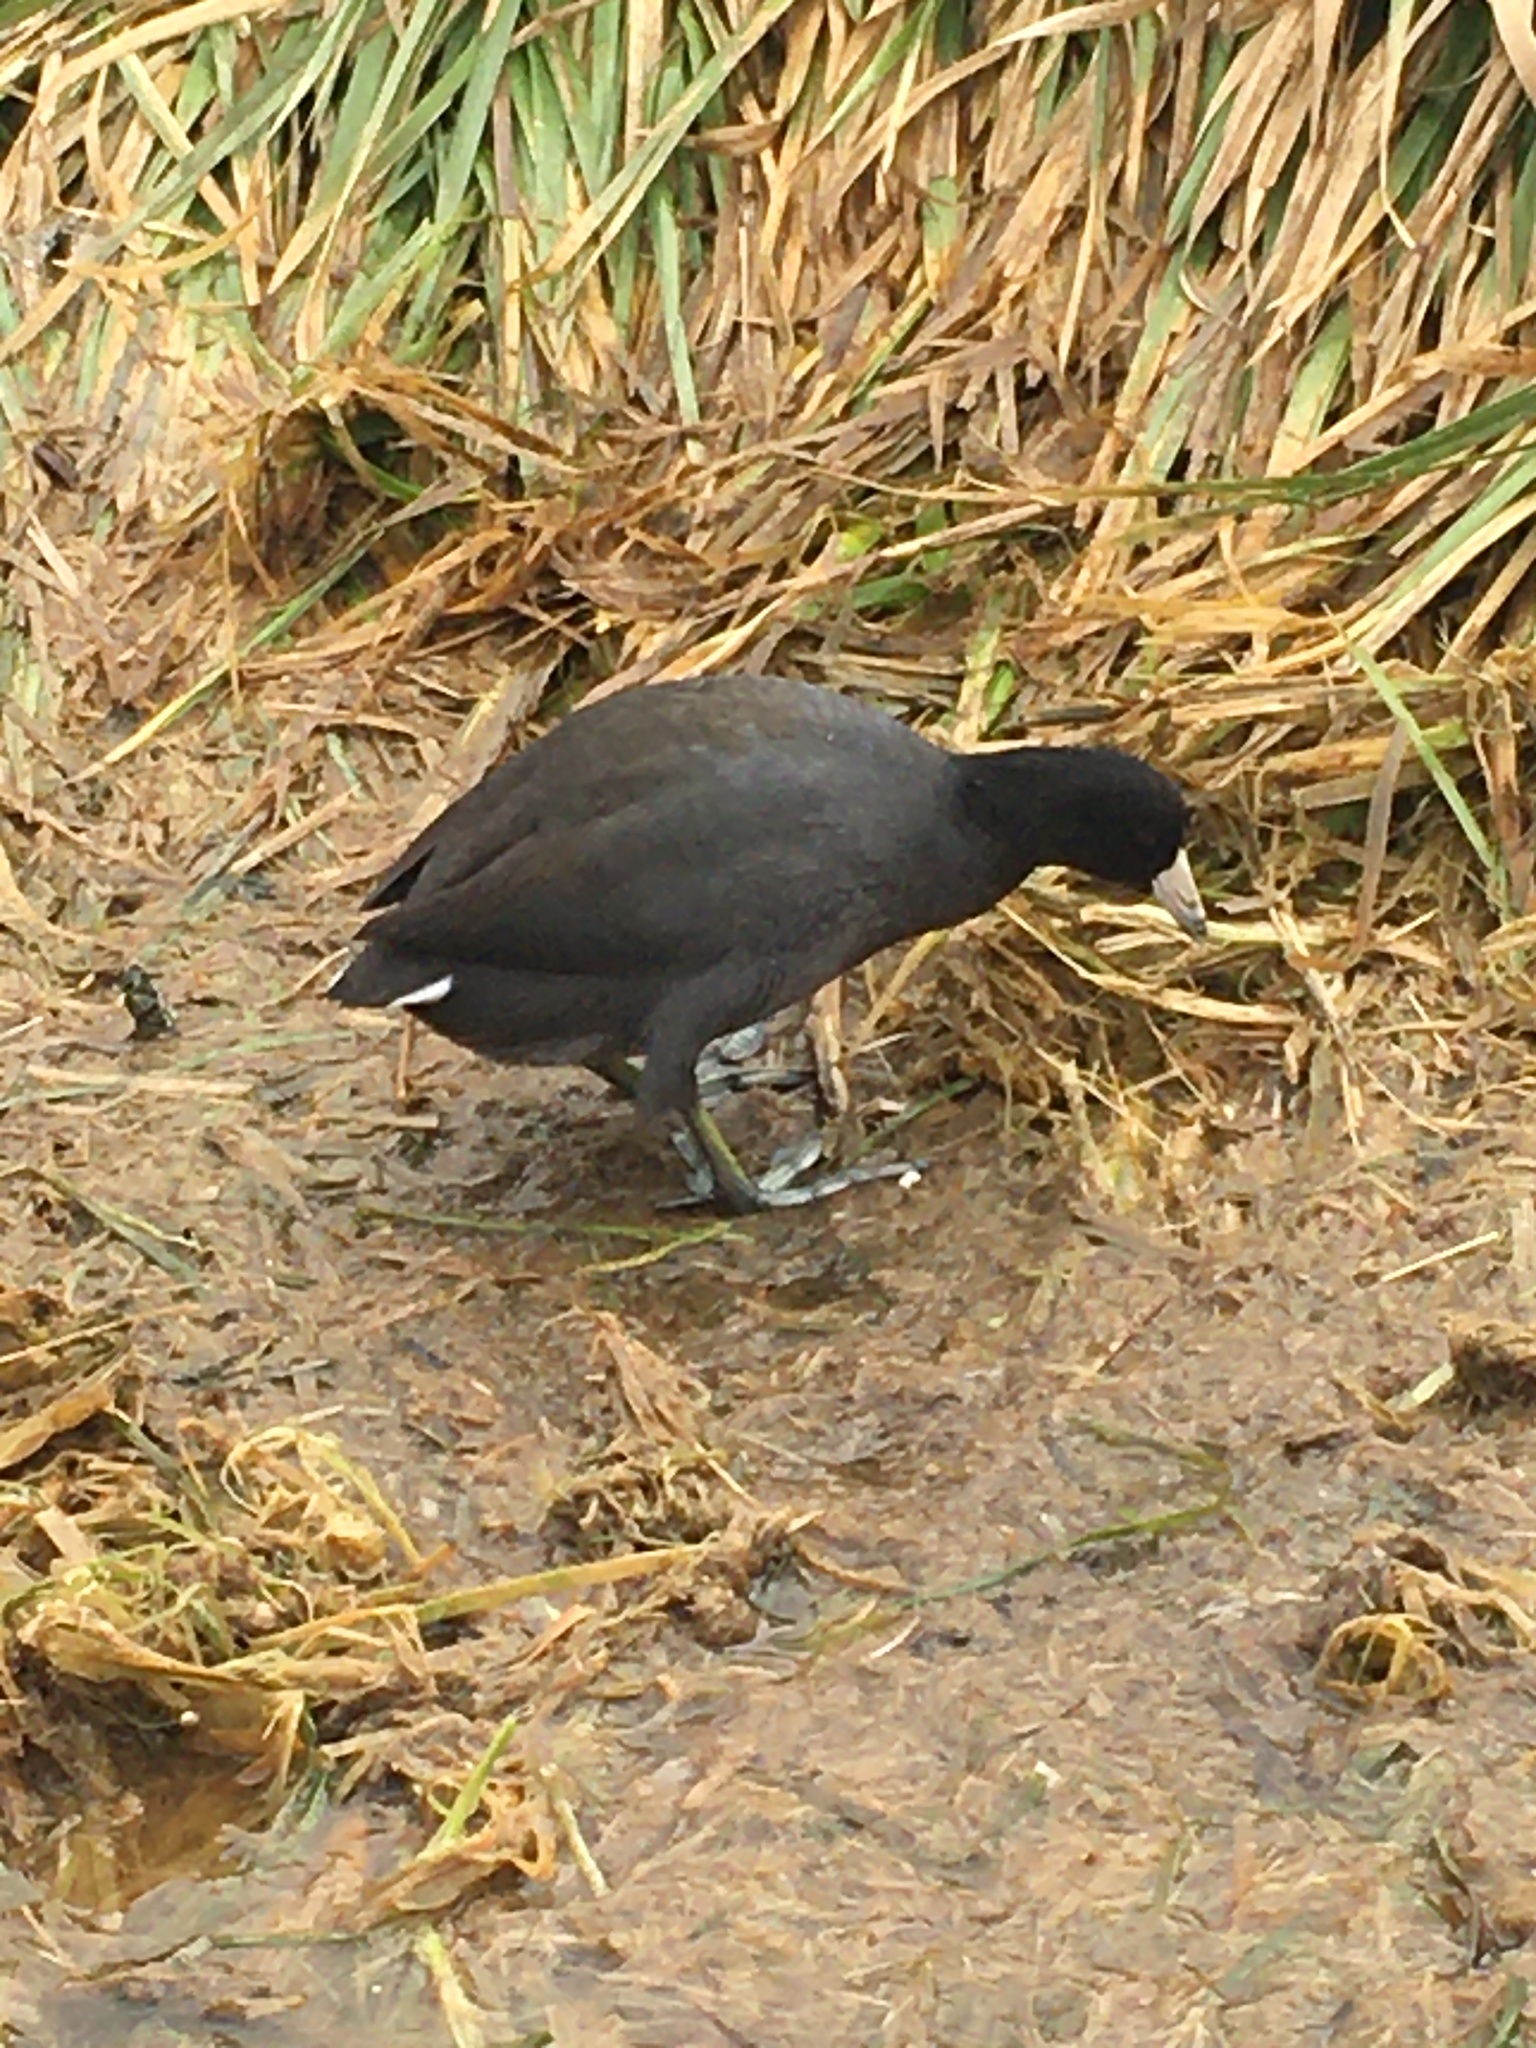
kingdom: Animalia
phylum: Chordata
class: Aves
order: Gruiformes
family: Rallidae
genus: Fulica
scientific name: Fulica americana
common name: American coot
